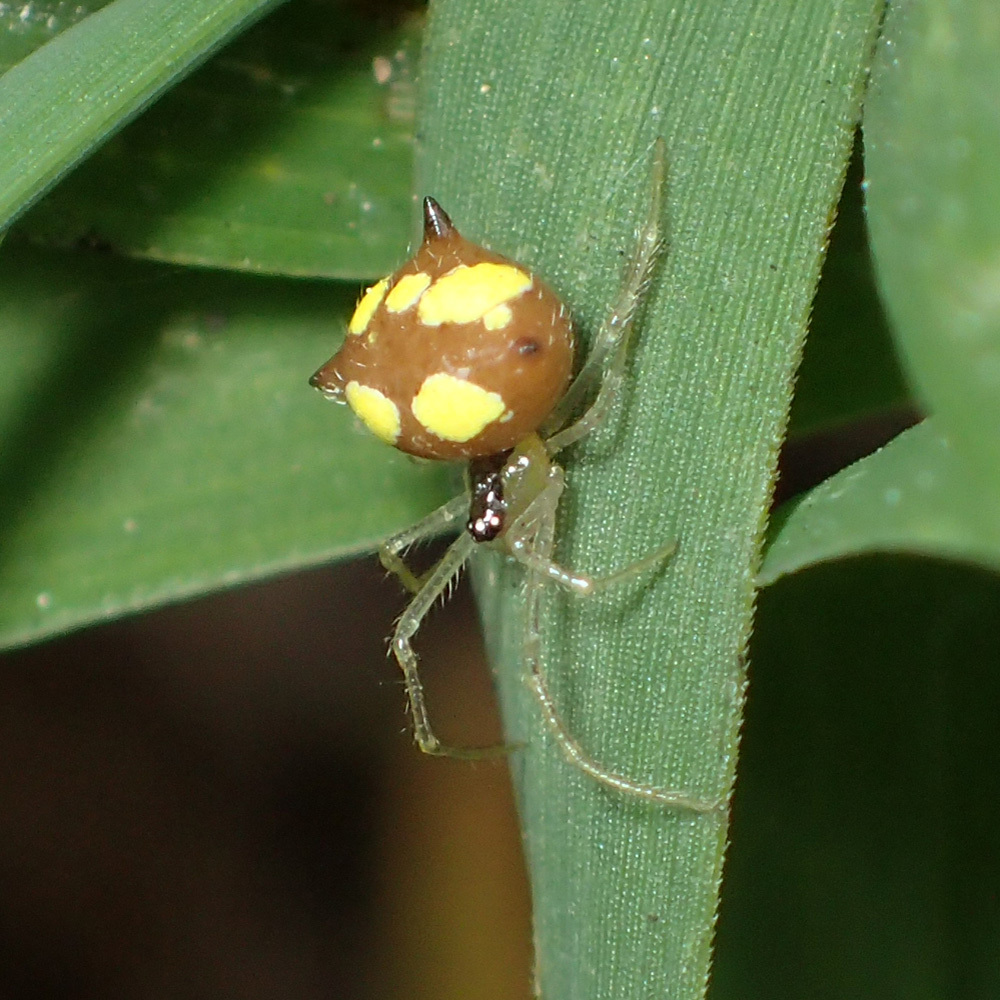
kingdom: Animalia
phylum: Arthropoda
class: Arachnida
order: Araneae
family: Theridiidae
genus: Theridula
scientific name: Theridula gonygaster
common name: Cobweb spiders
